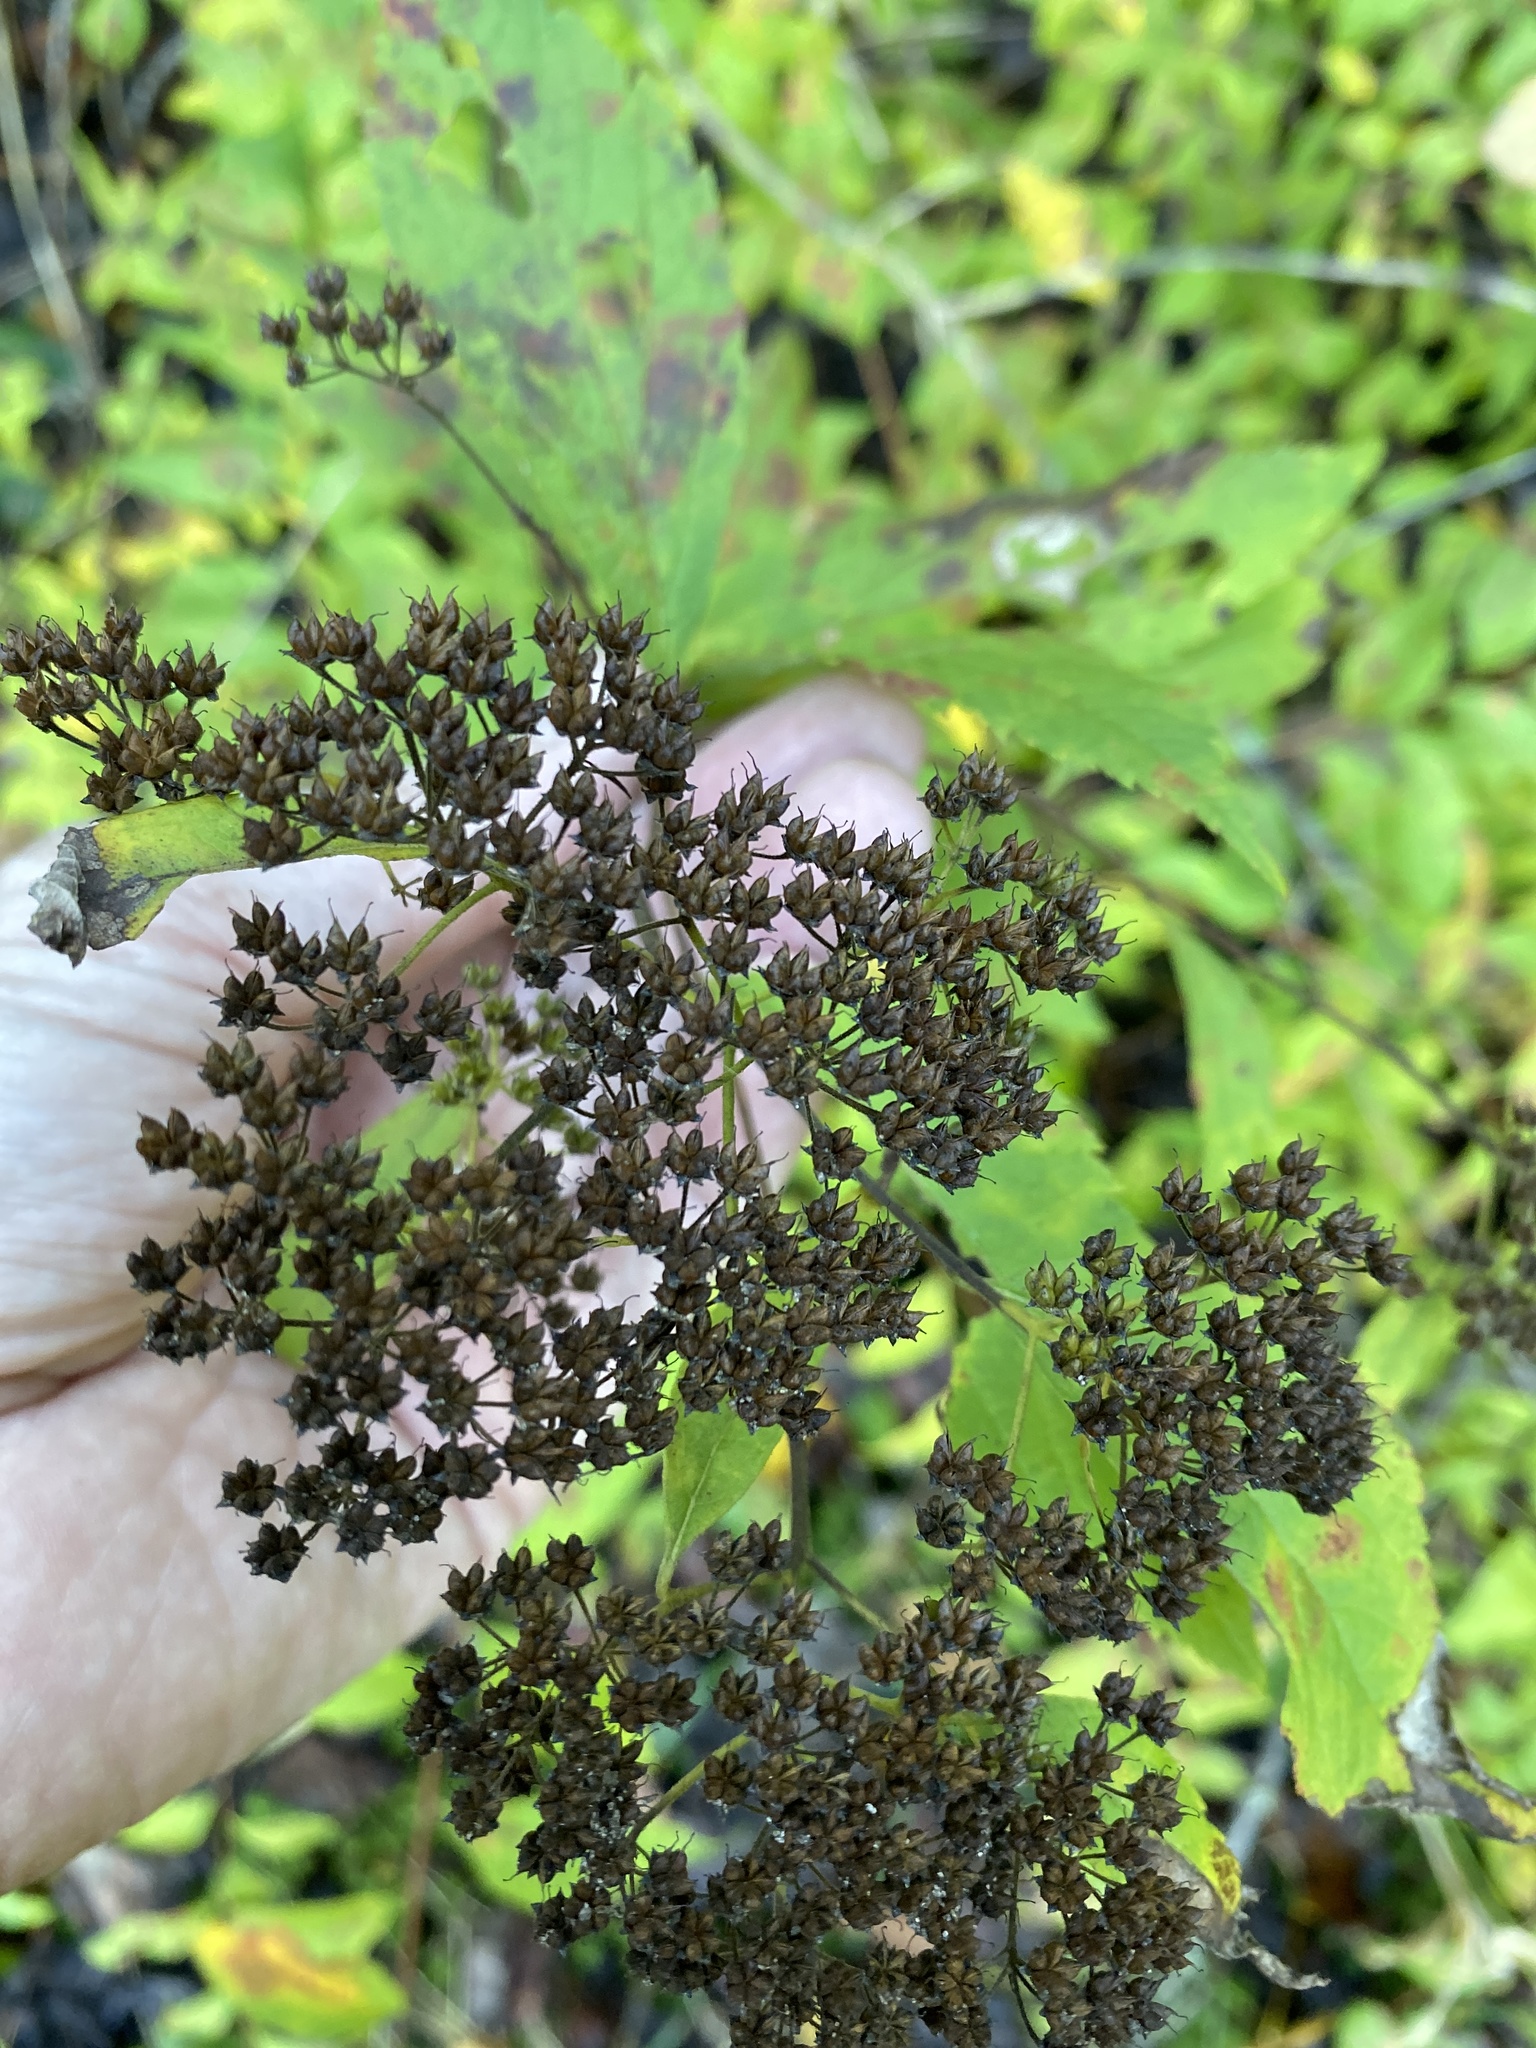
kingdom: Plantae
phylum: Tracheophyta
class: Magnoliopsida
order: Rosales
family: Rosaceae
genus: Spiraea
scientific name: Spiraea japonica
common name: Japanese spiraea
